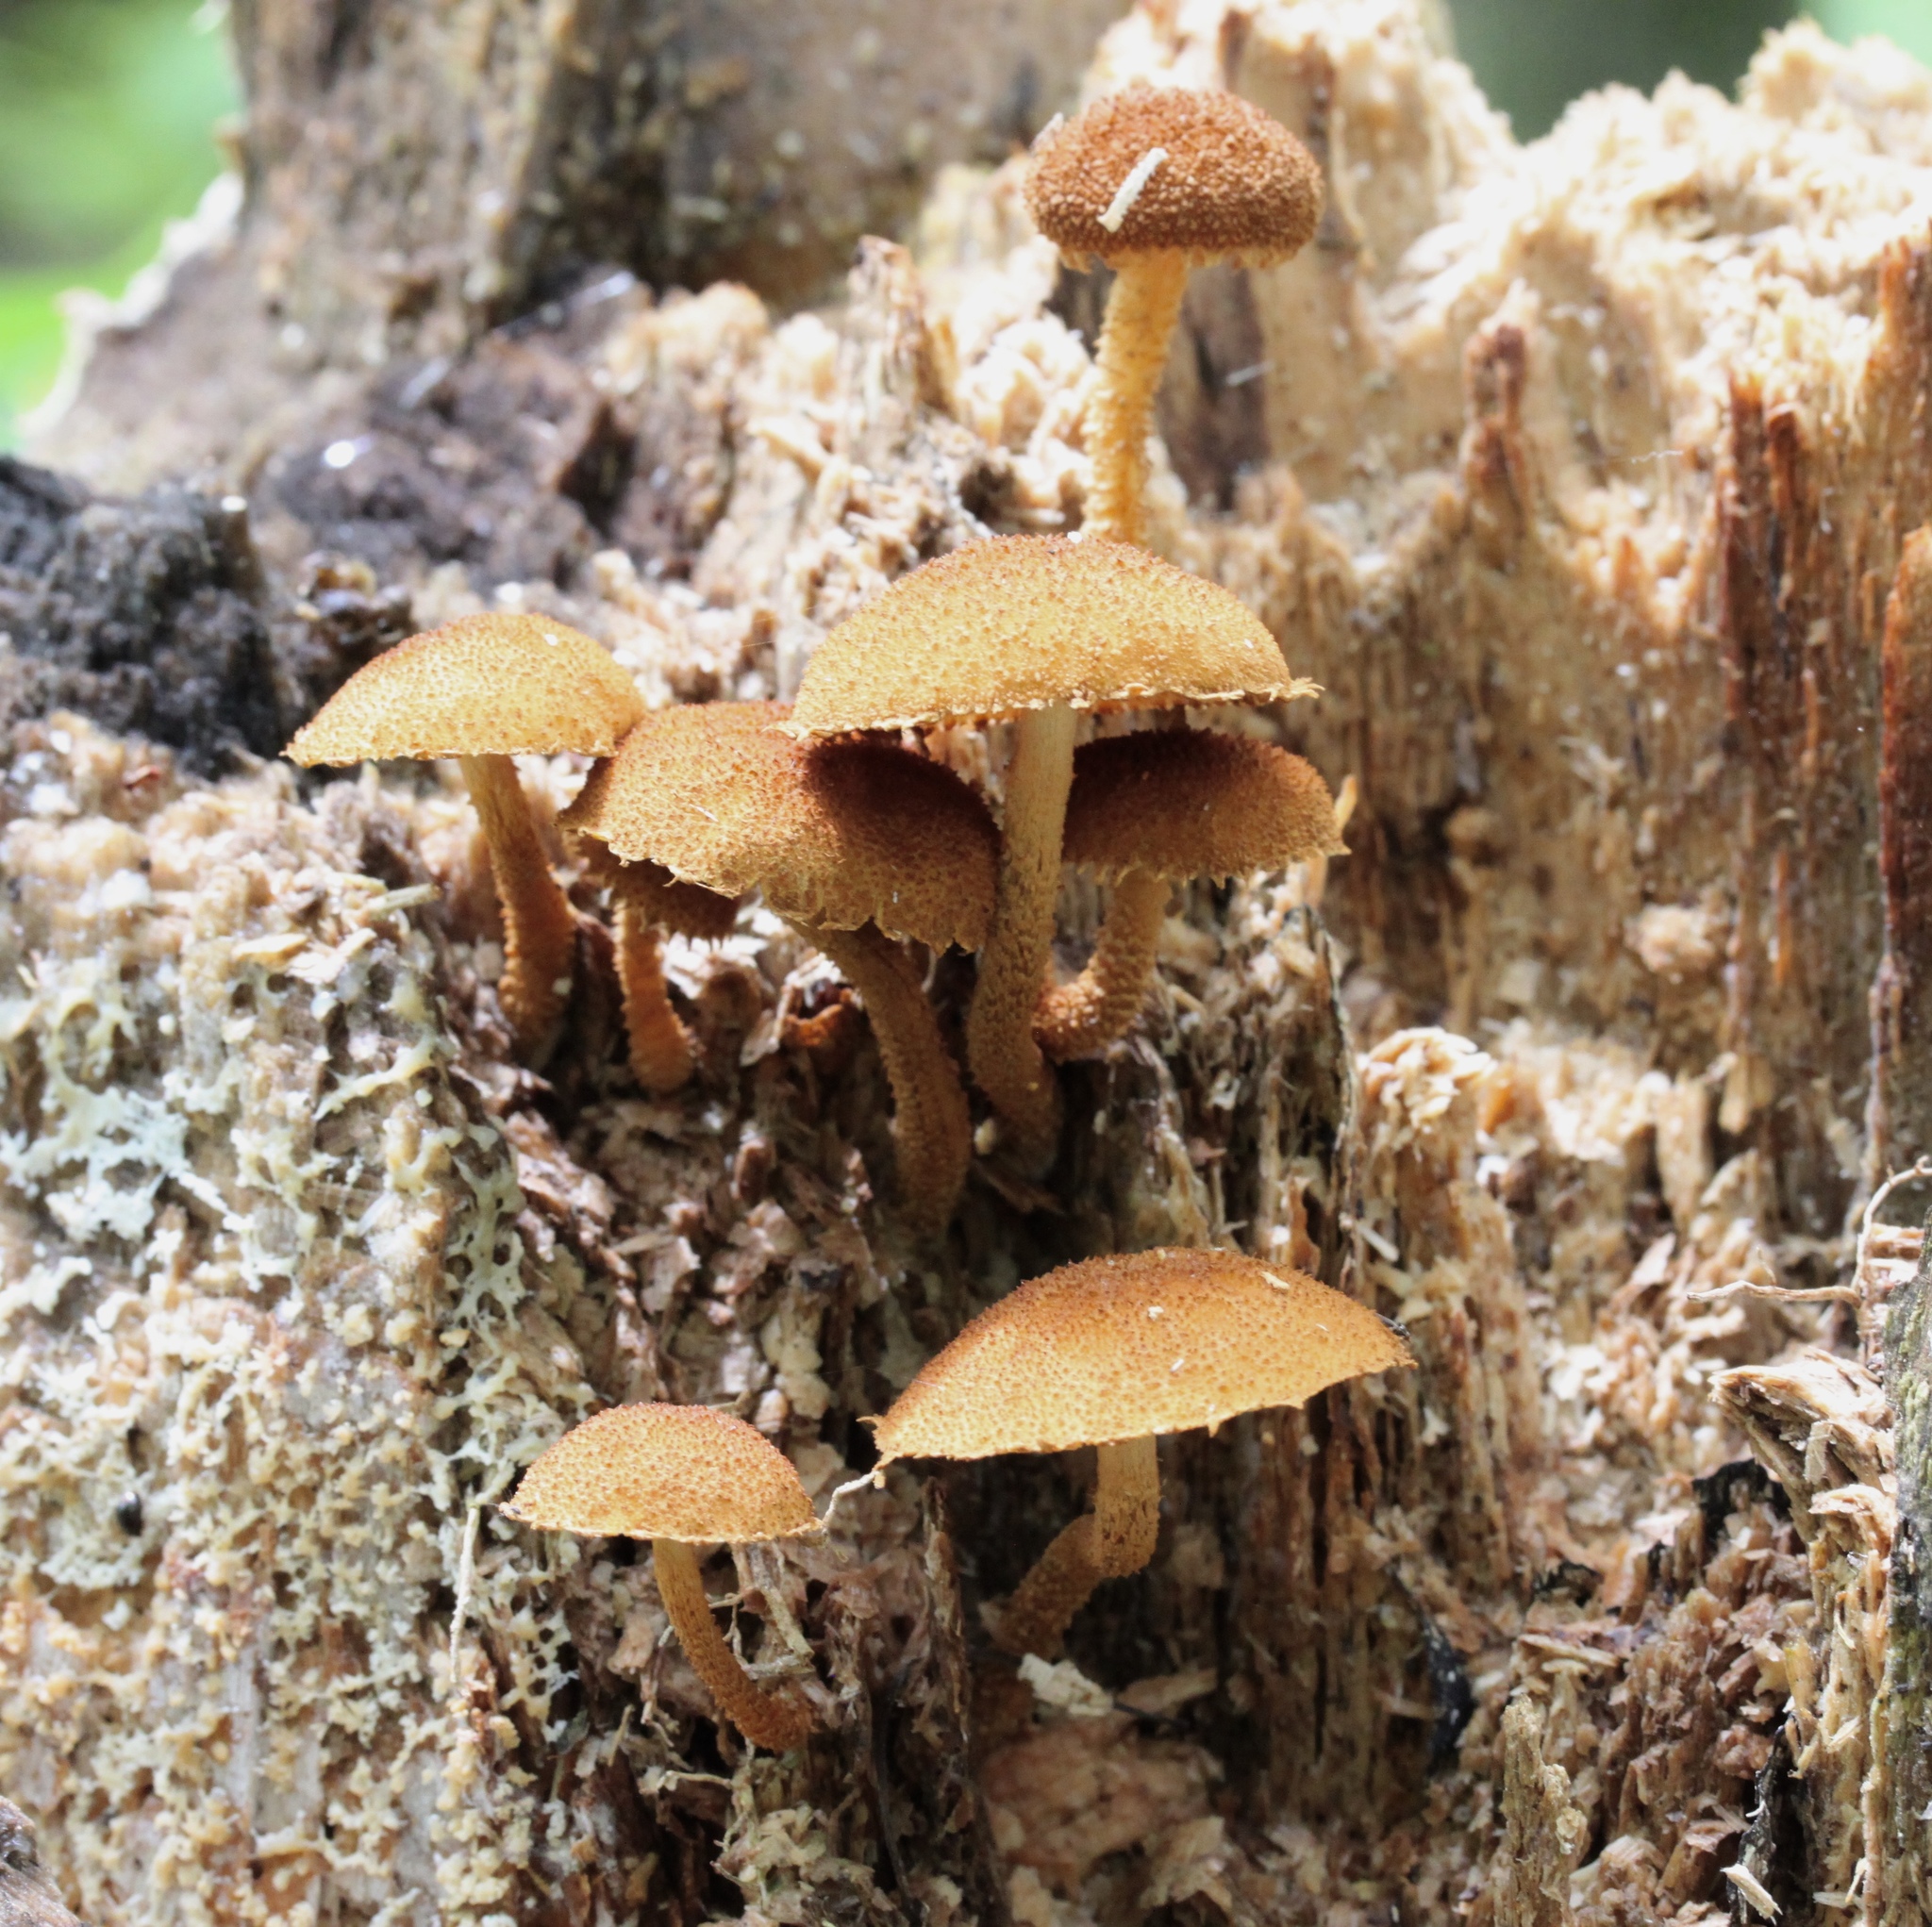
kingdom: Fungi
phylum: Basidiomycota
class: Agaricomycetes
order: Agaricales
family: Tubariaceae
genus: Flammulaster
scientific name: Flammulaster erinaceellus
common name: Powder-scale pholiota
